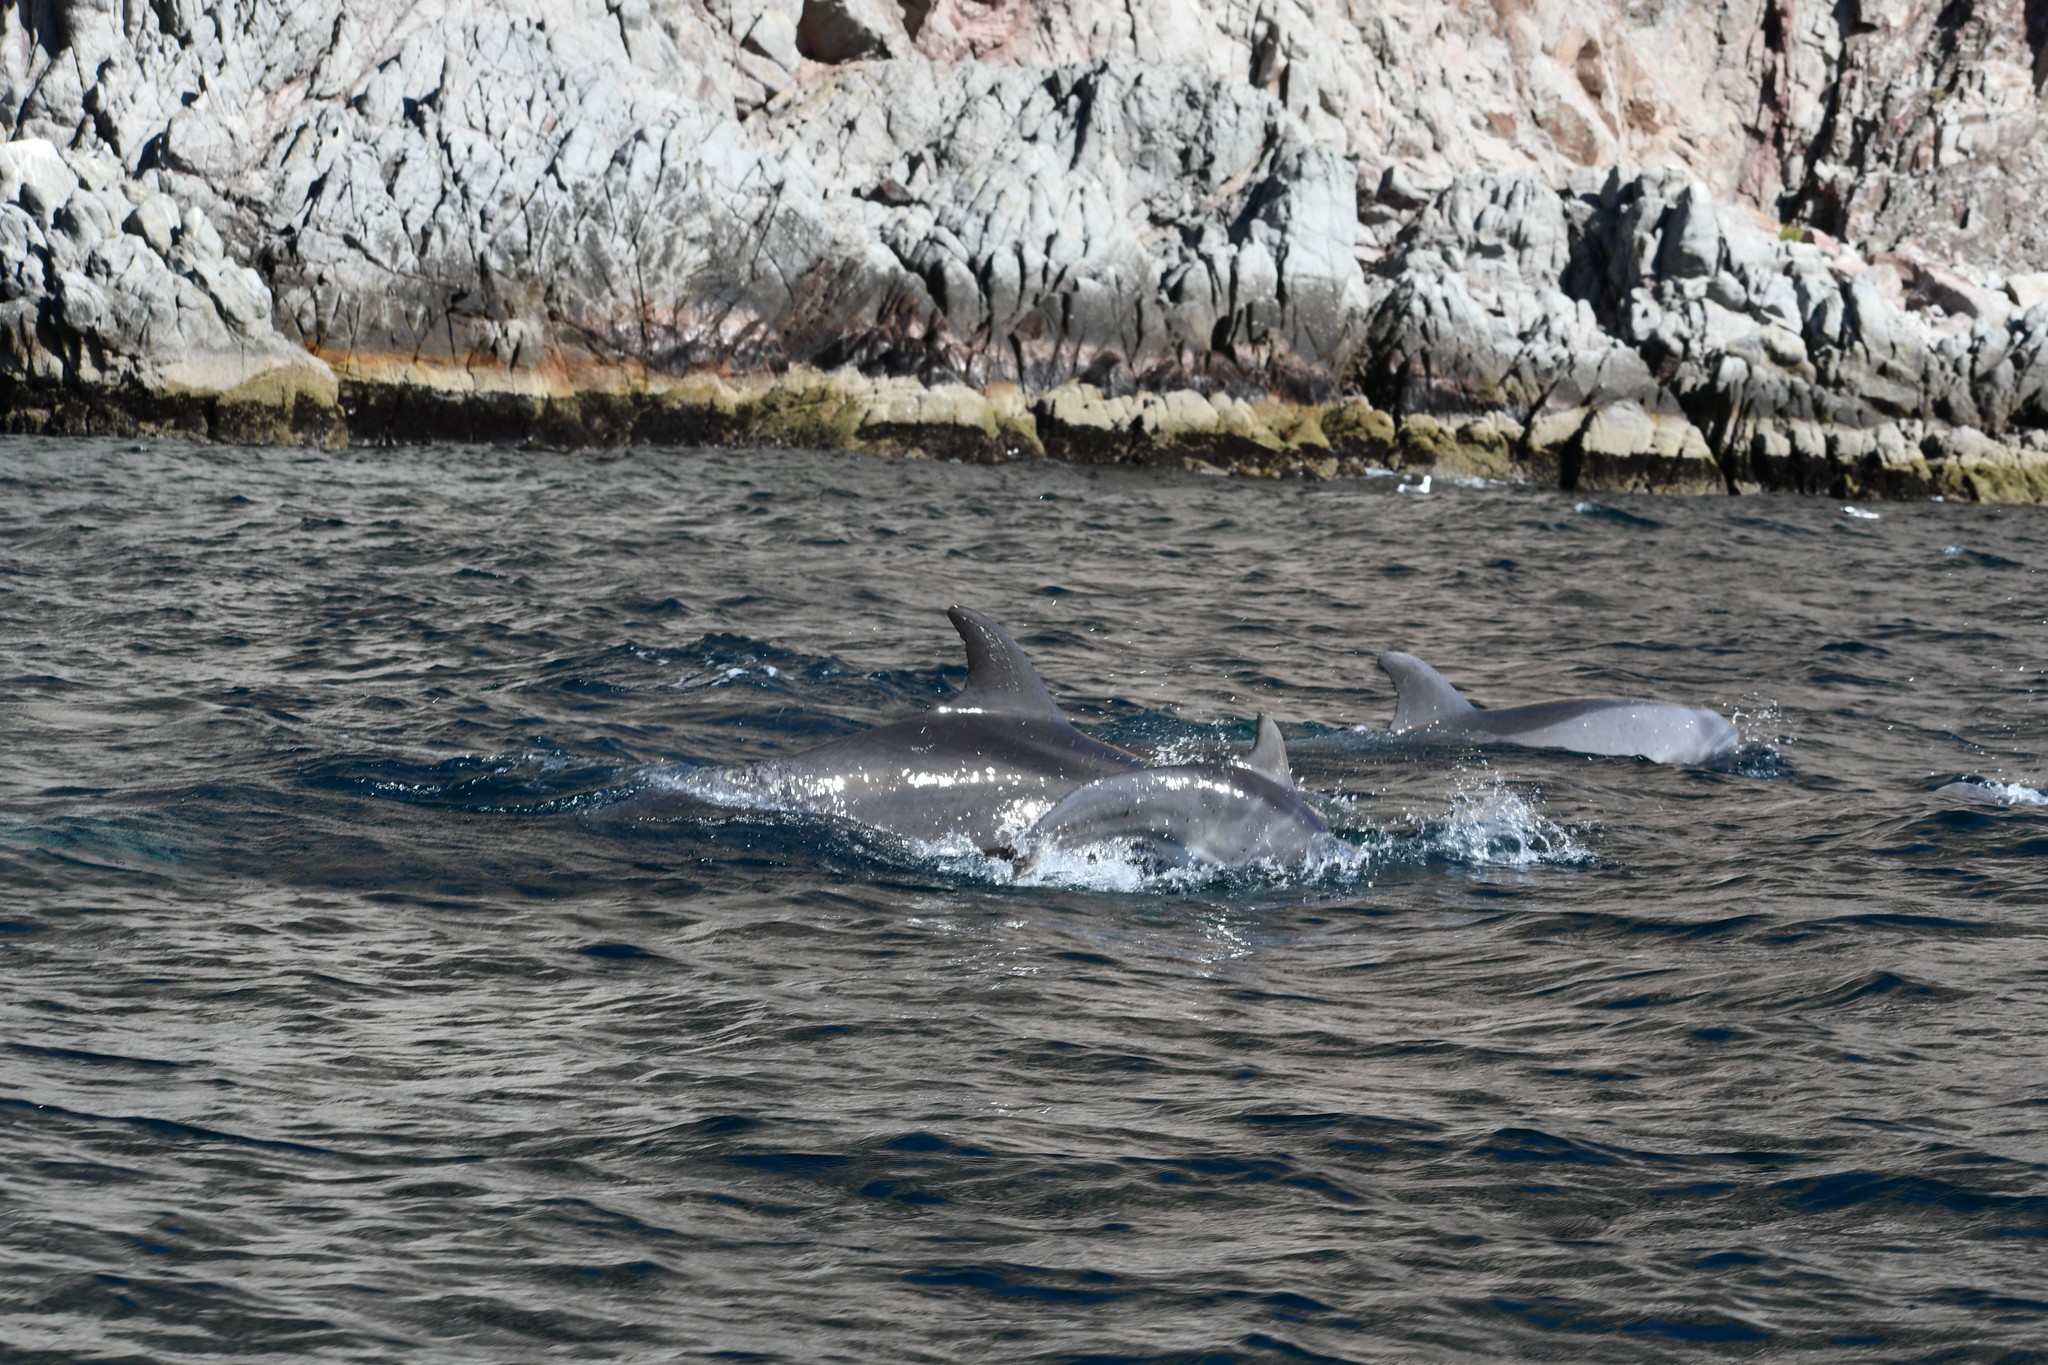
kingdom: Animalia
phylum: Chordata
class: Mammalia
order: Cetacea
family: Delphinidae
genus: Tursiops
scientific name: Tursiops truncatus
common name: Bottlenose dolphin
